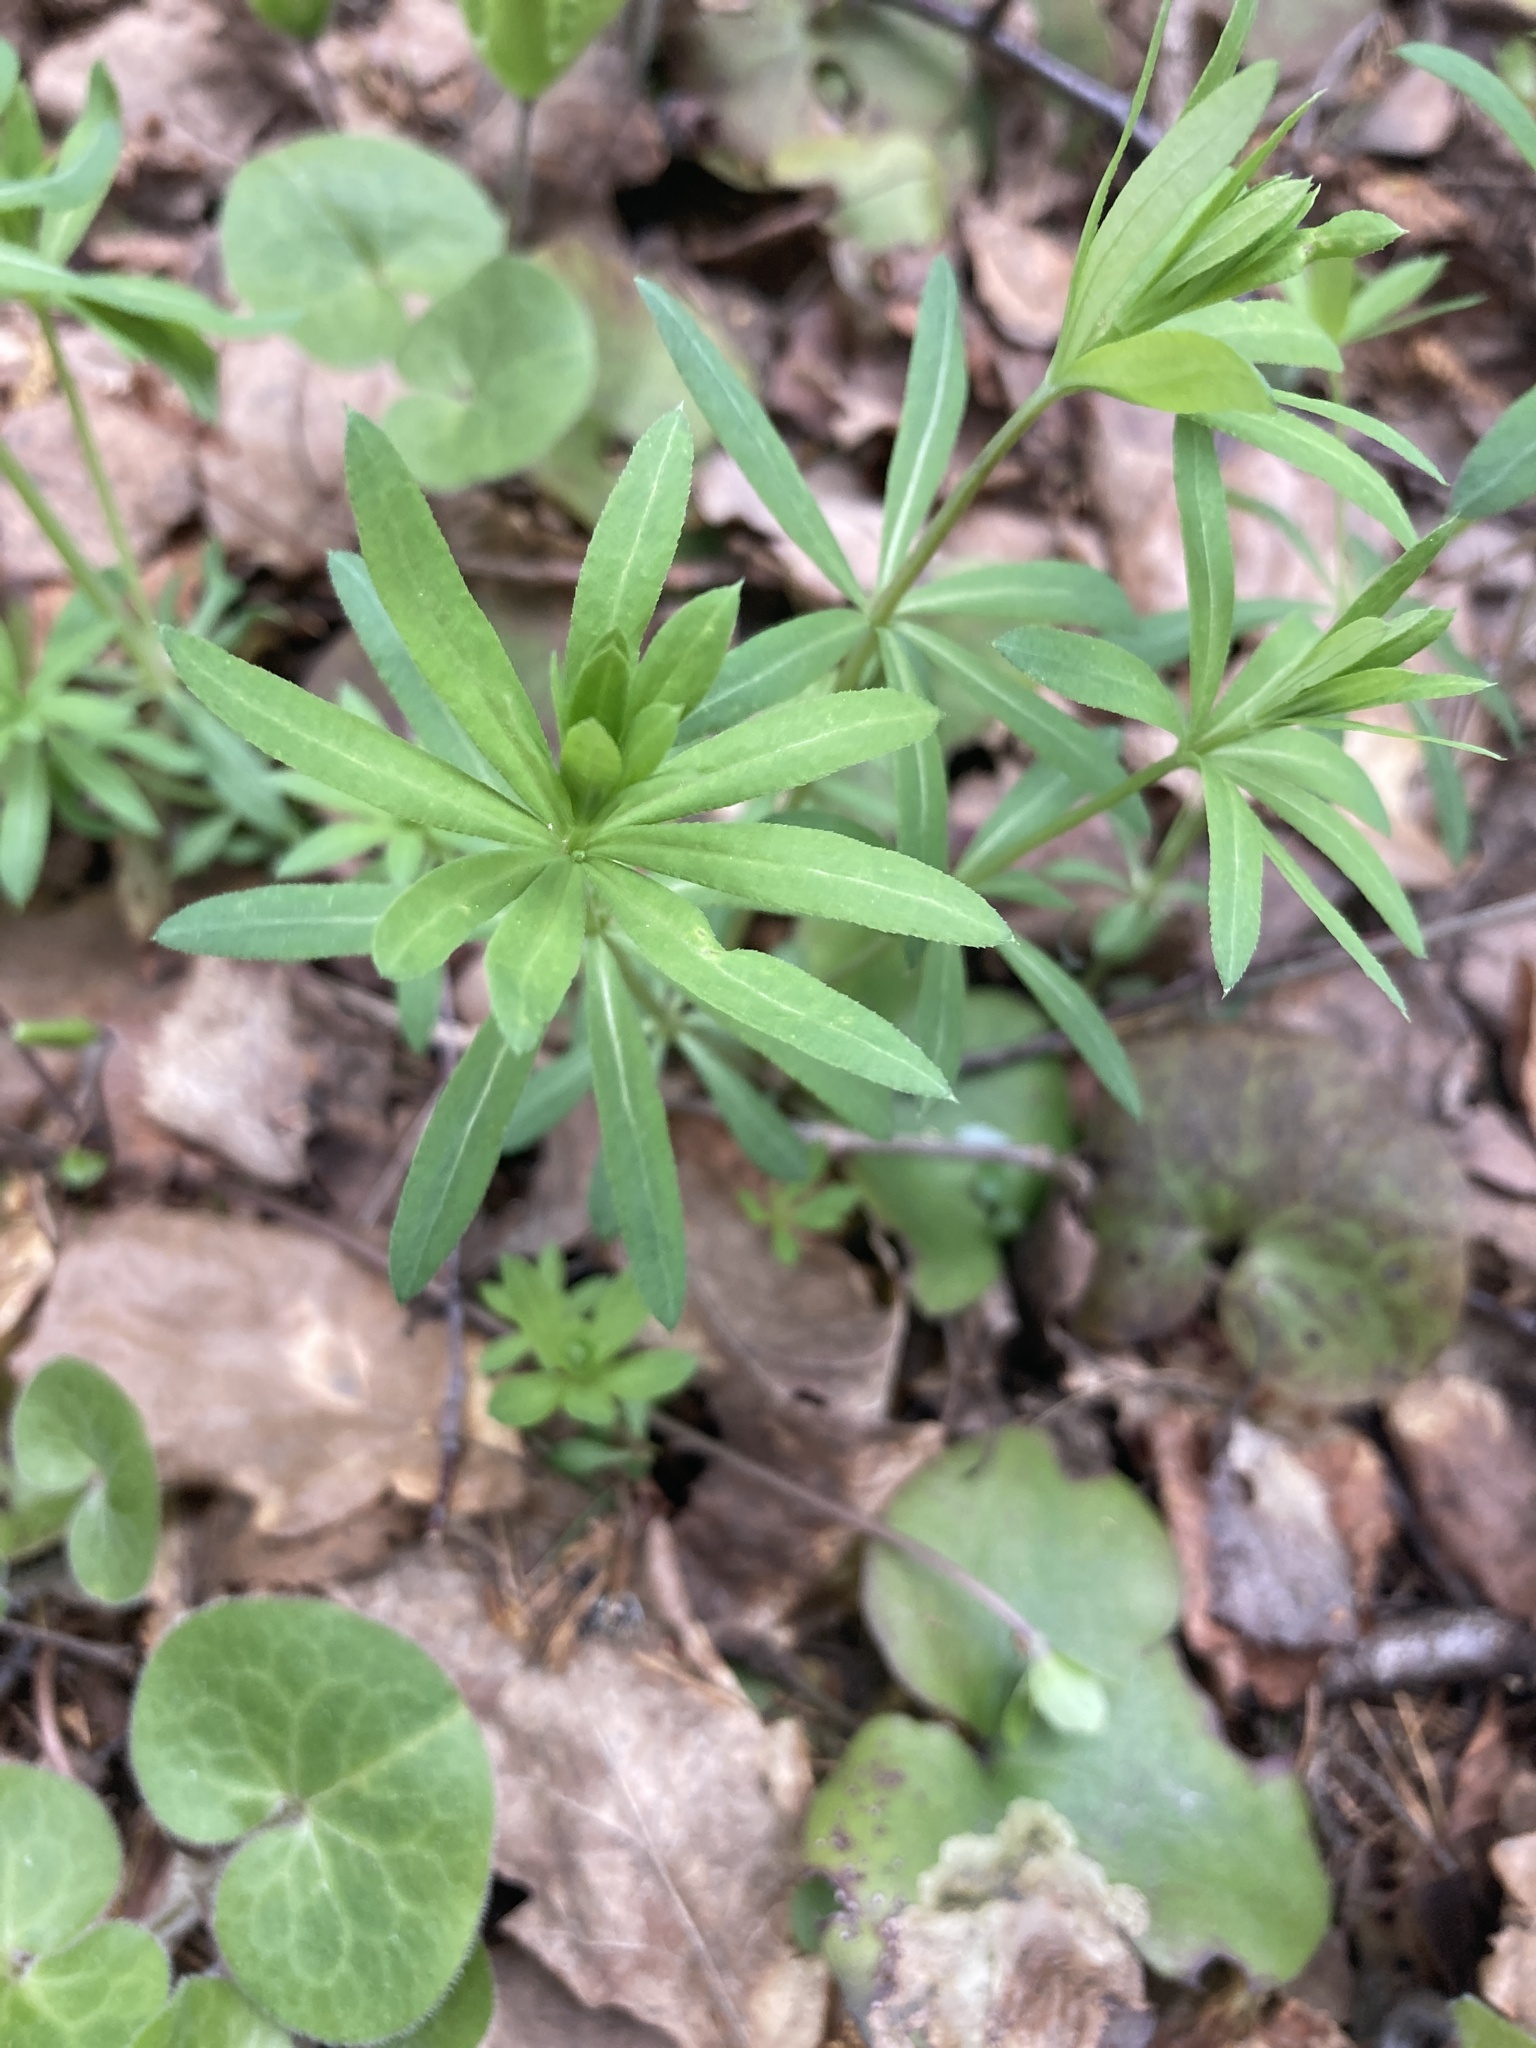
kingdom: Plantae
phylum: Tracheophyta
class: Magnoliopsida
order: Gentianales
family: Rubiaceae
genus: Galium
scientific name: Galium intermedium
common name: Bedstraw
